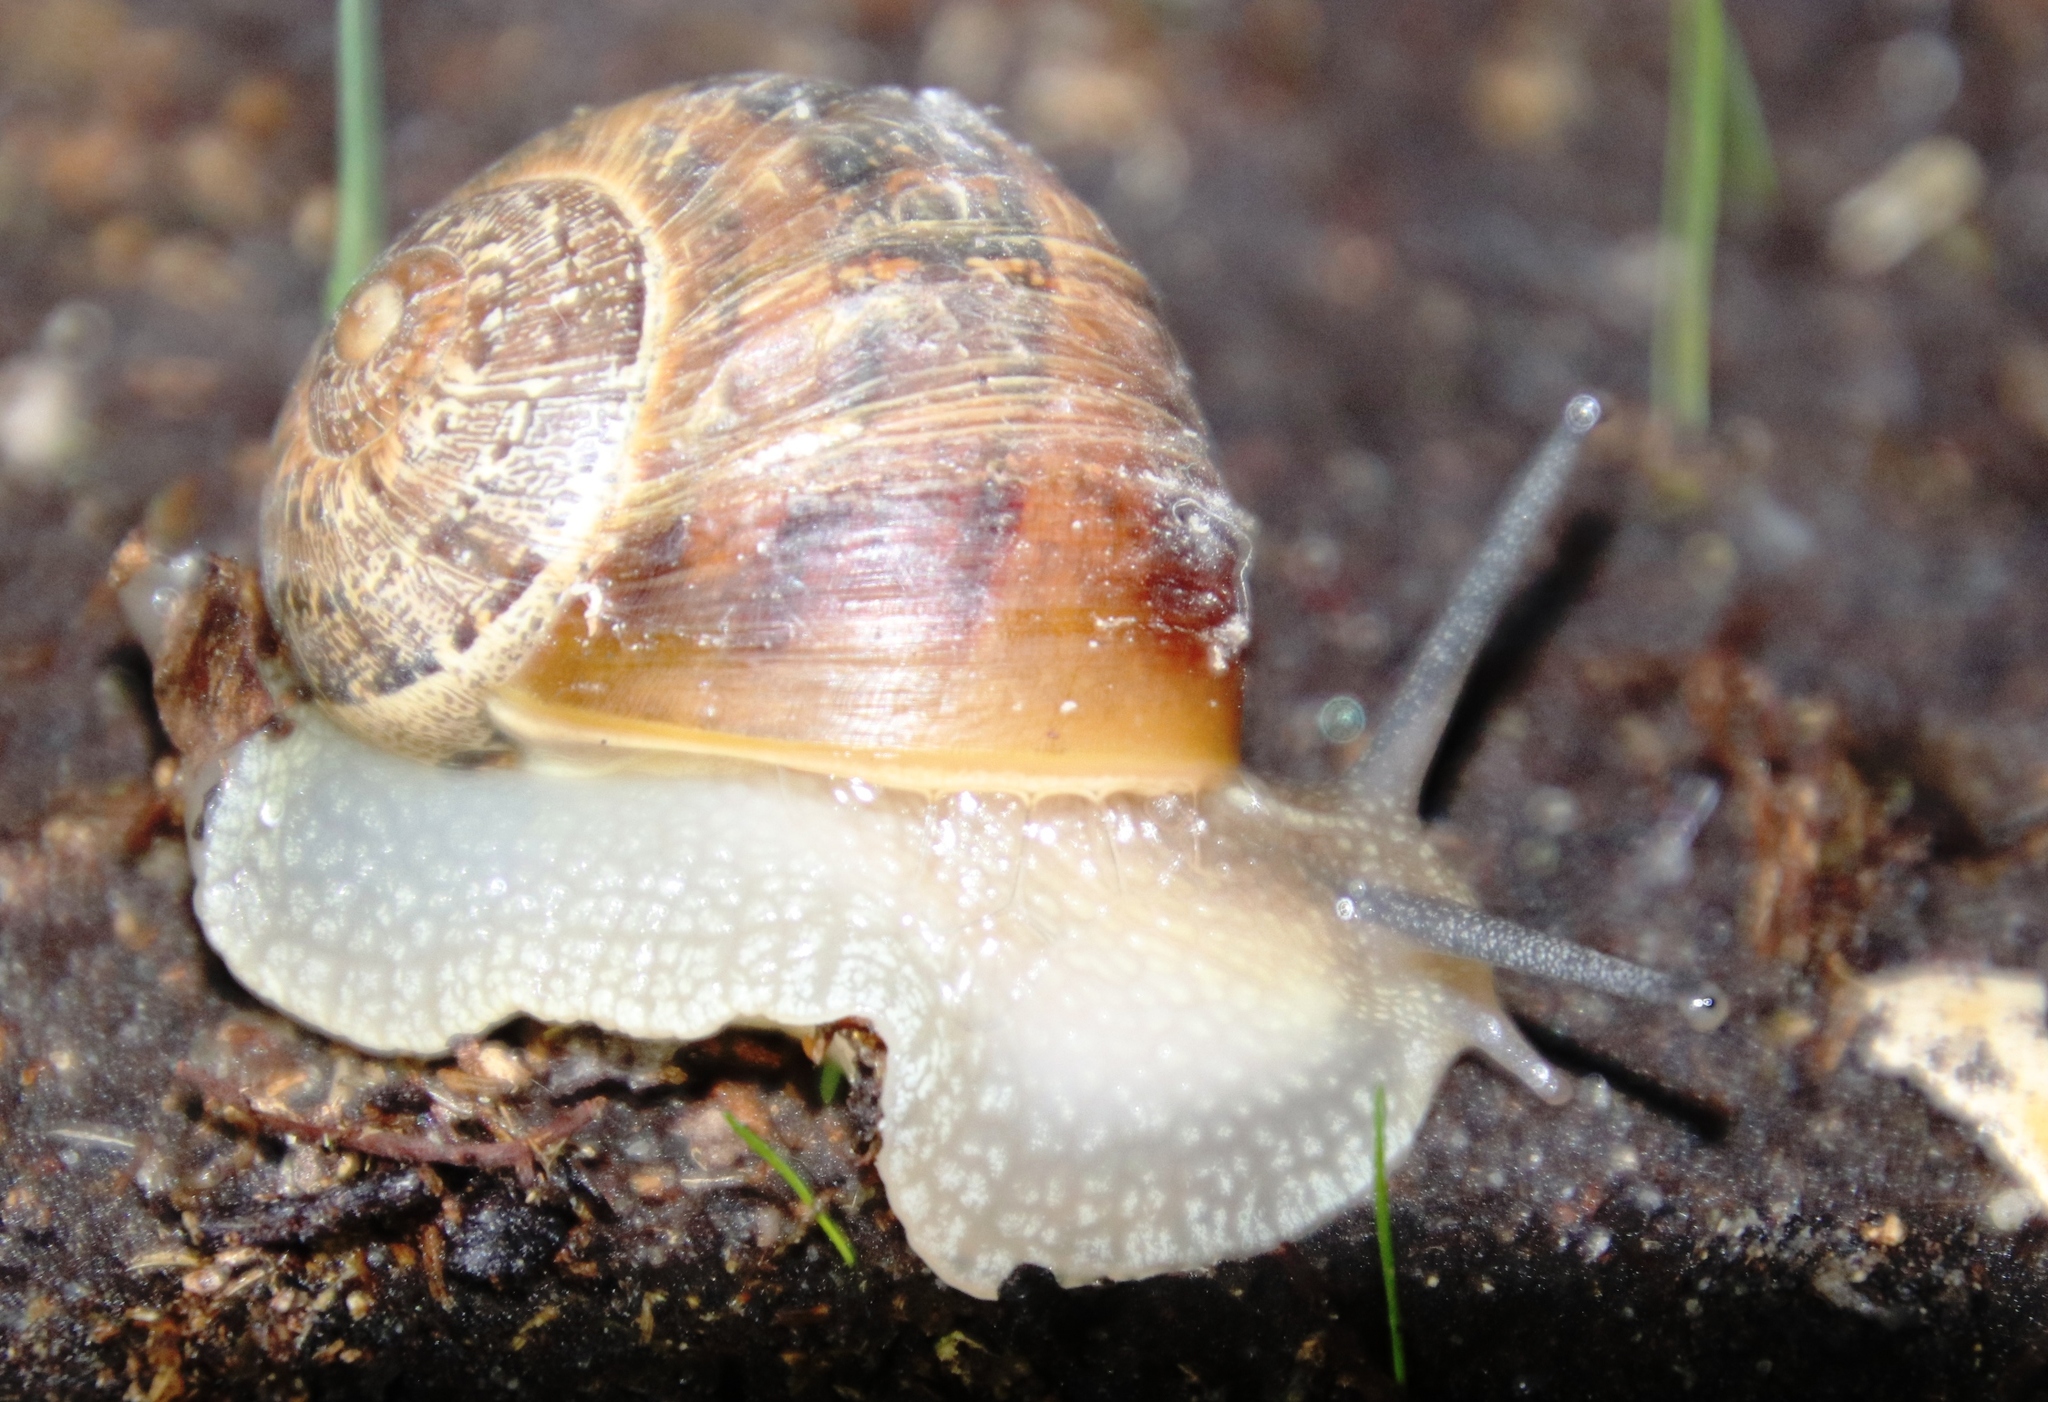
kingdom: Animalia
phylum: Mollusca
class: Gastropoda
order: Stylommatophora
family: Helicidae
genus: Cornu
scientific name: Cornu aspersum
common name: Brown garden snail
